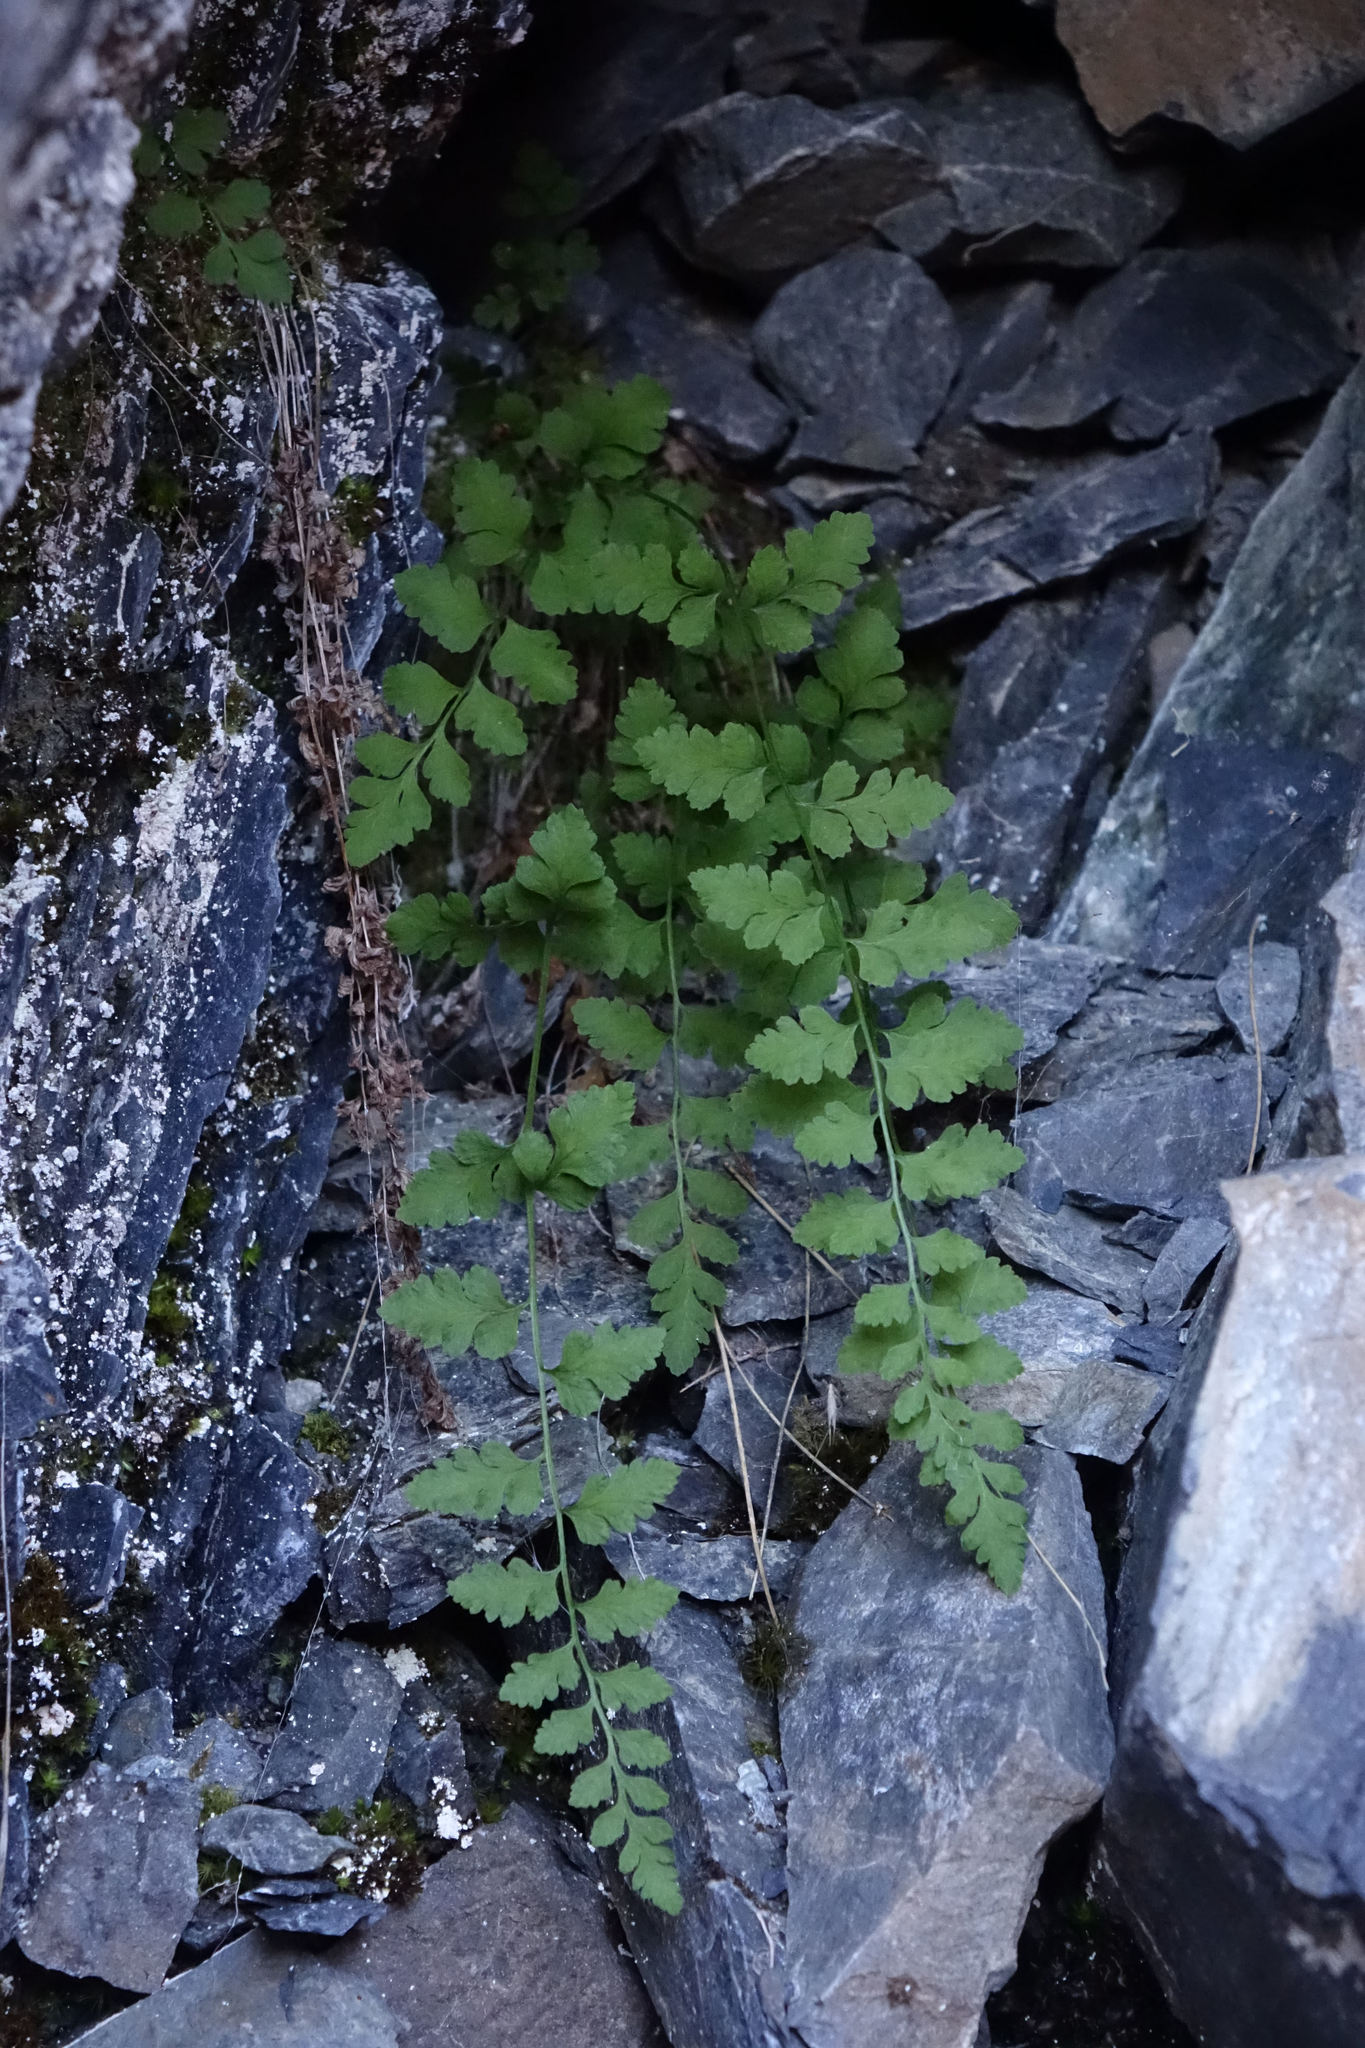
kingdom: Plantae
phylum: Tracheophyta
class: Polypodiopsida
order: Polypodiales
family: Cystopteridaceae
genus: Cystopteris
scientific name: Cystopteris tasmanica
